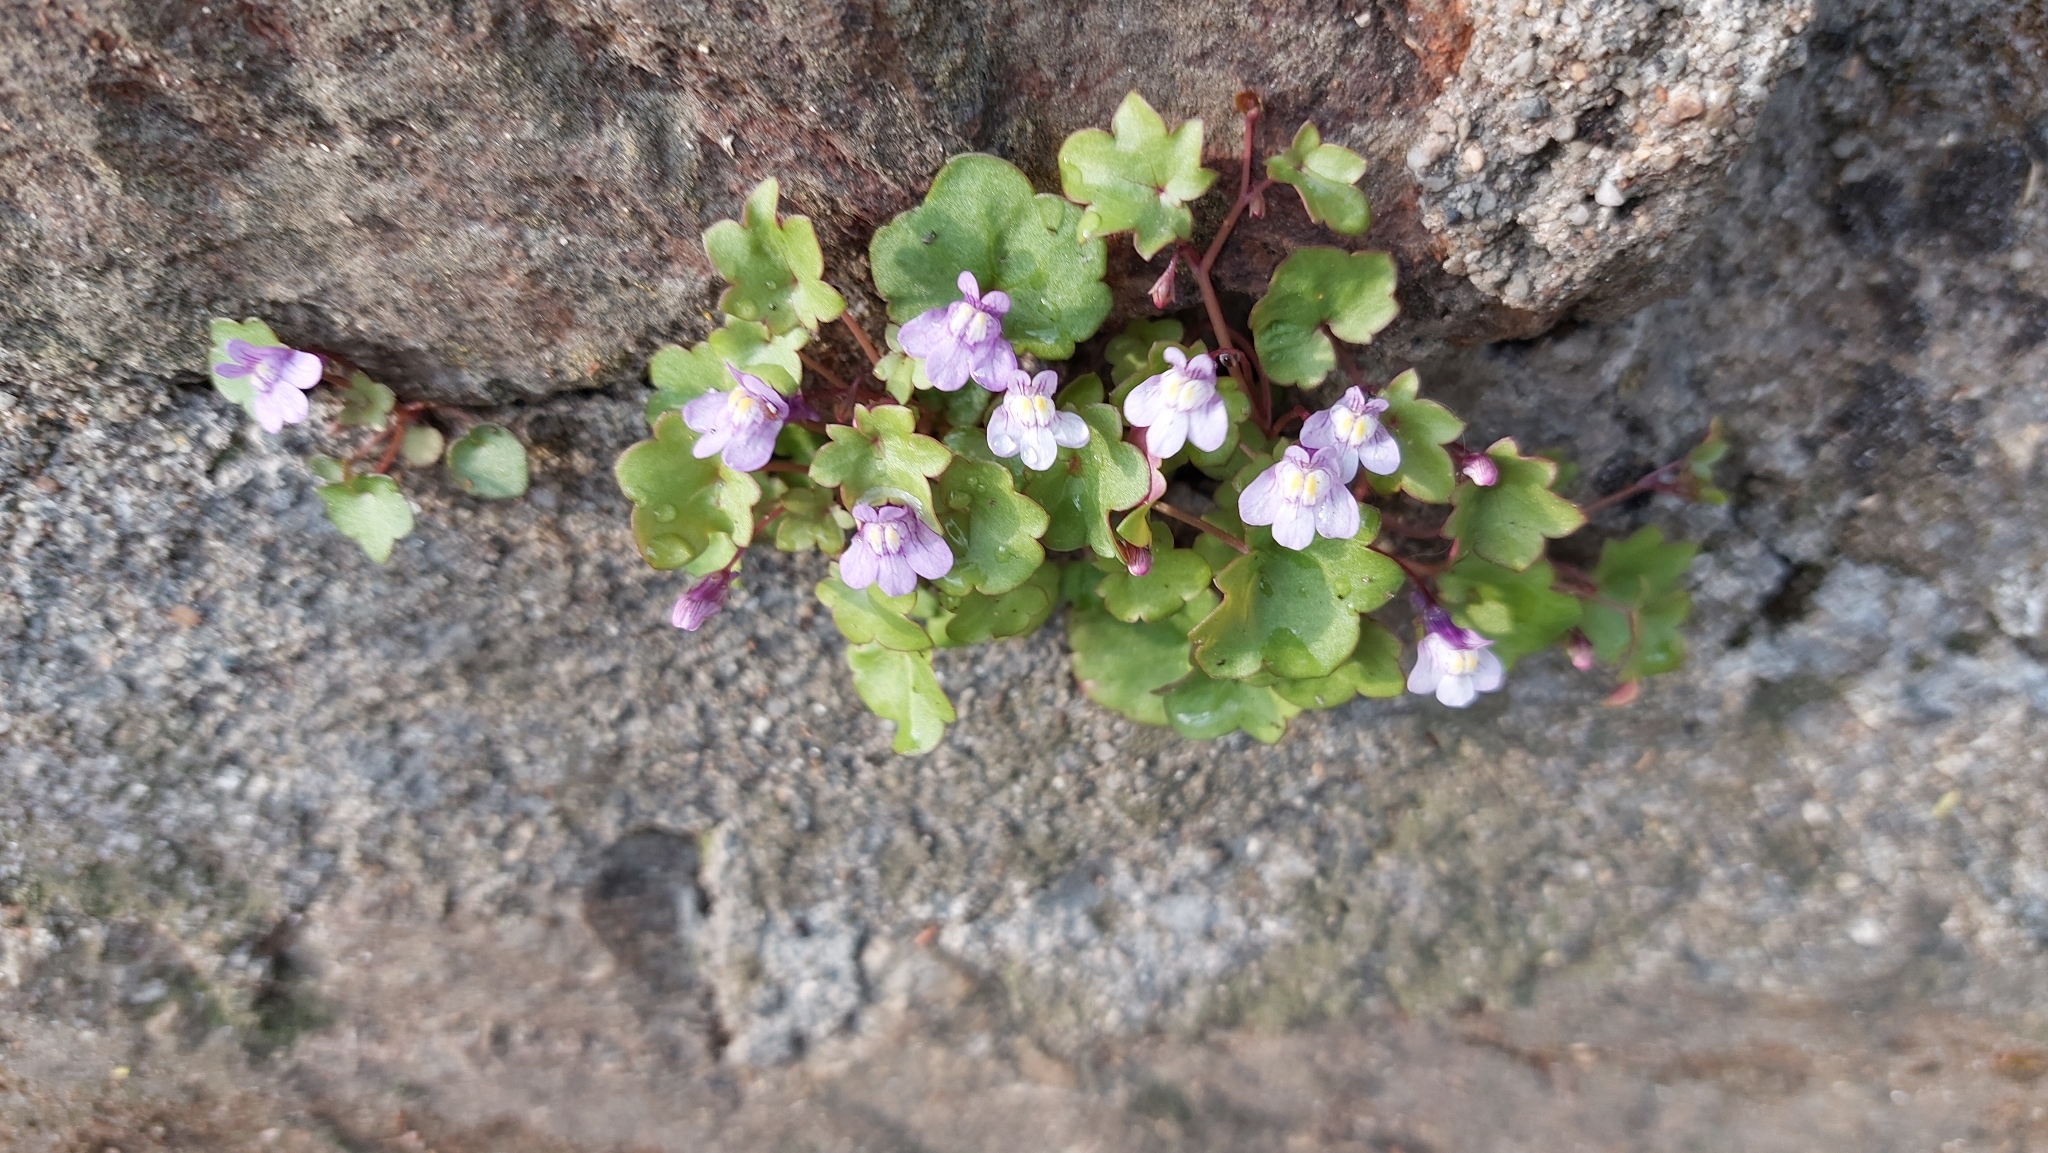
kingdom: Plantae
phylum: Tracheophyta
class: Magnoliopsida
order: Lamiales
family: Plantaginaceae
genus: Cymbalaria
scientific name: Cymbalaria muralis
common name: Ivy-leaved toadflax
